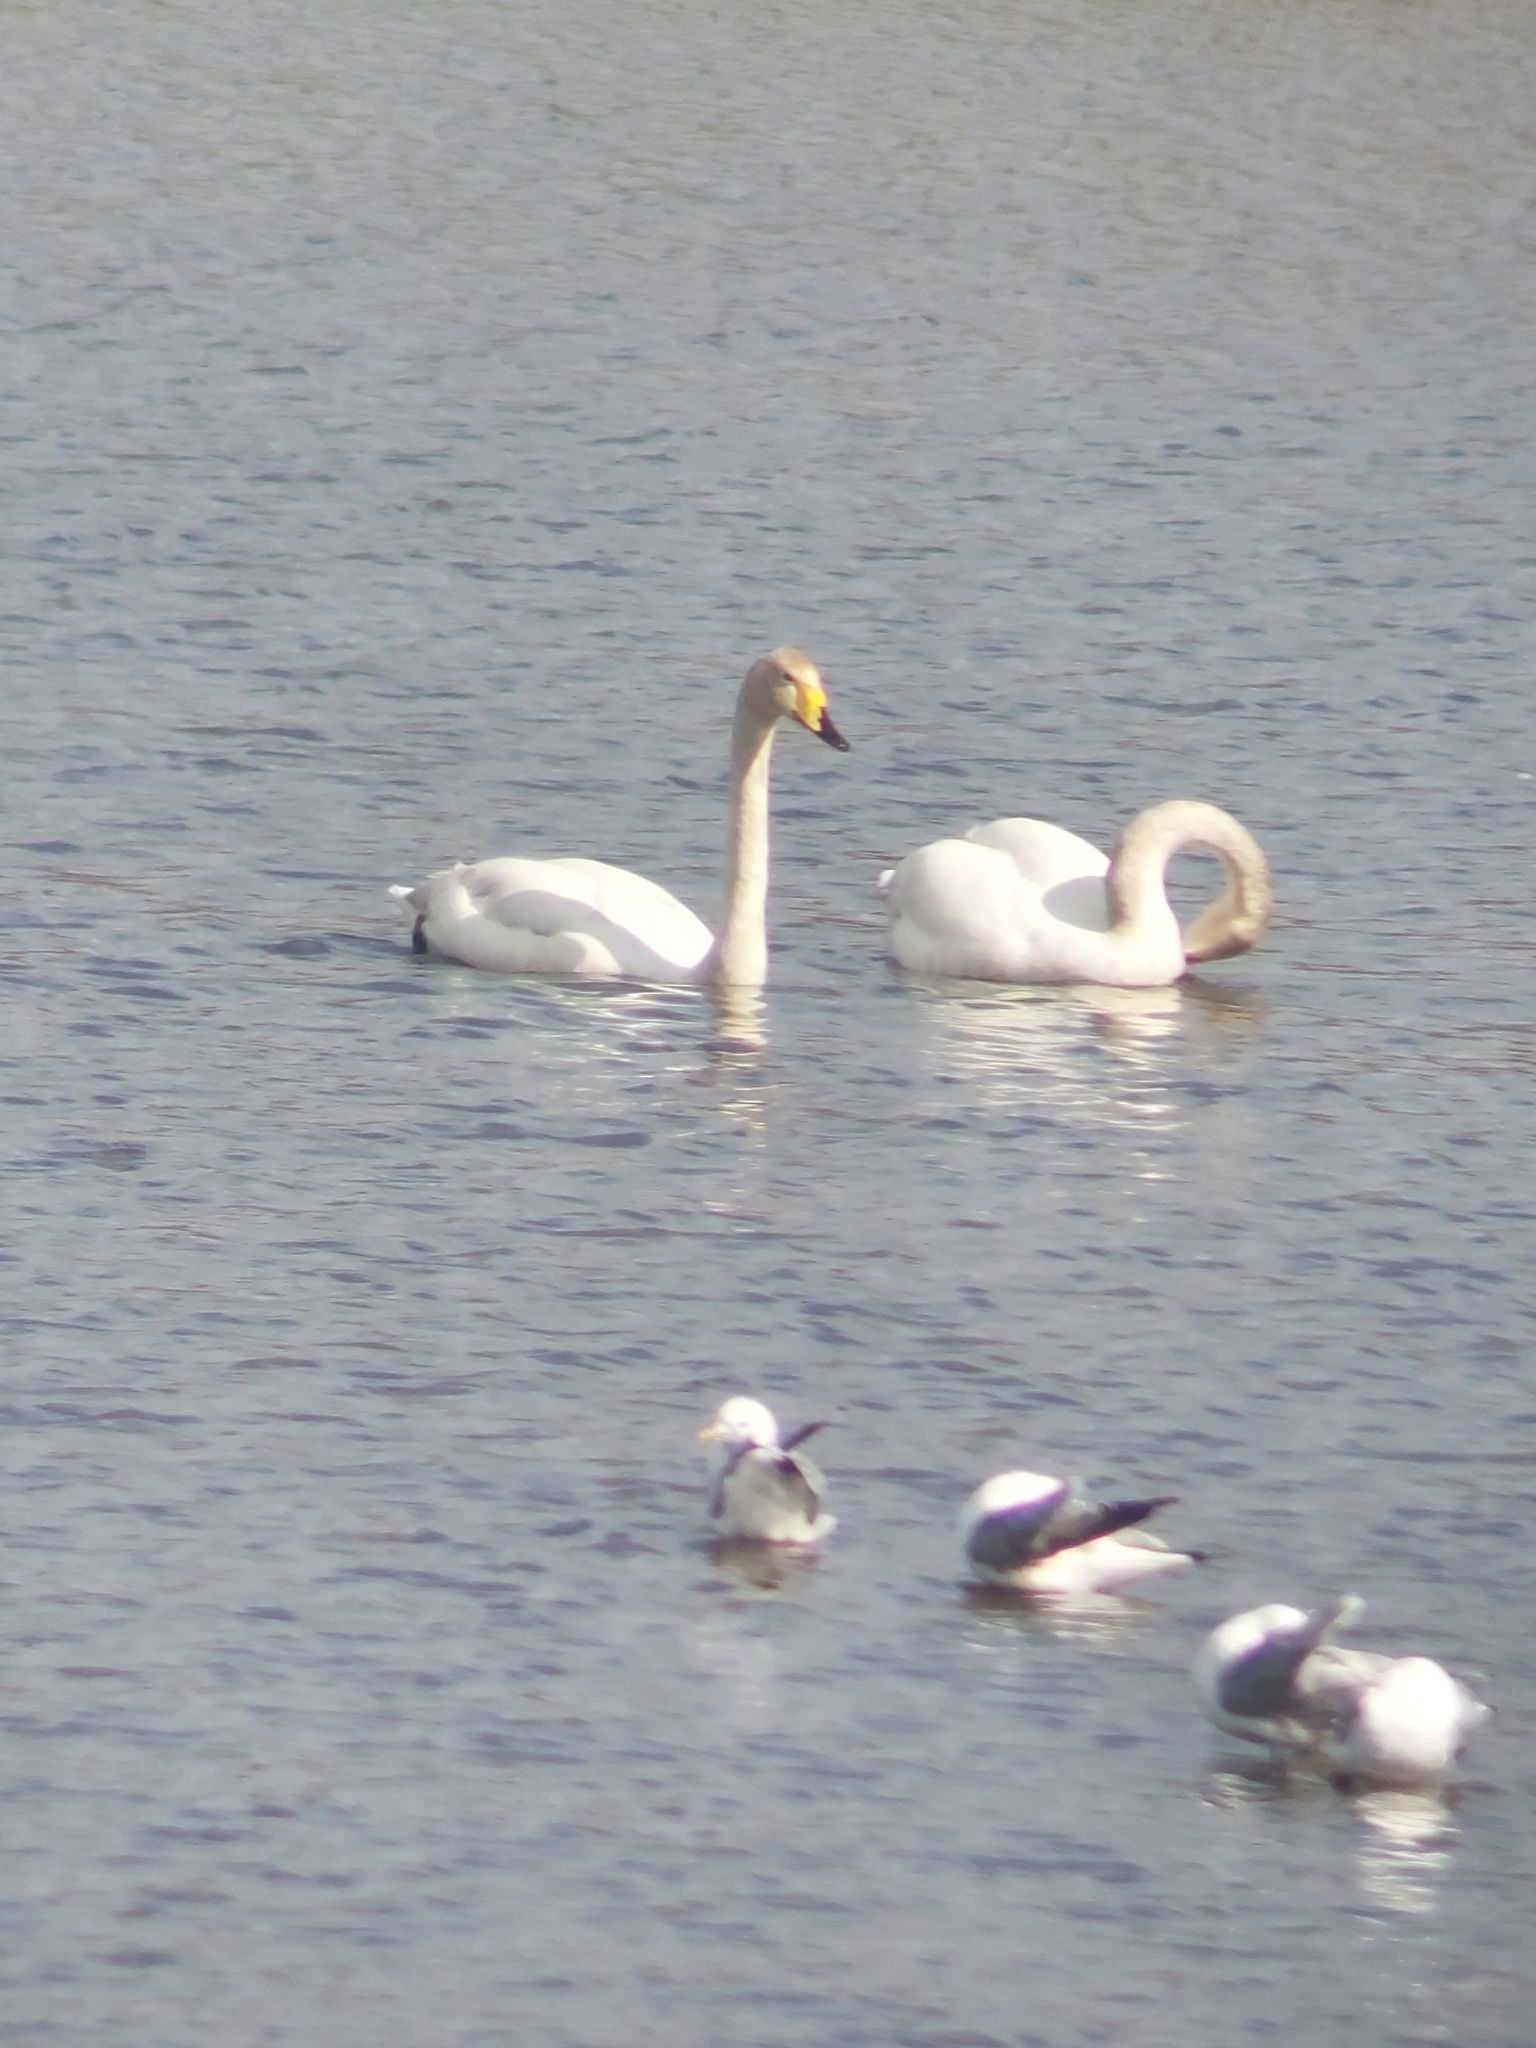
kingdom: Animalia
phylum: Chordata
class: Aves
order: Anseriformes
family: Anatidae
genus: Cygnus
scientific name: Cygnus cygnus
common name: Whooper swan
